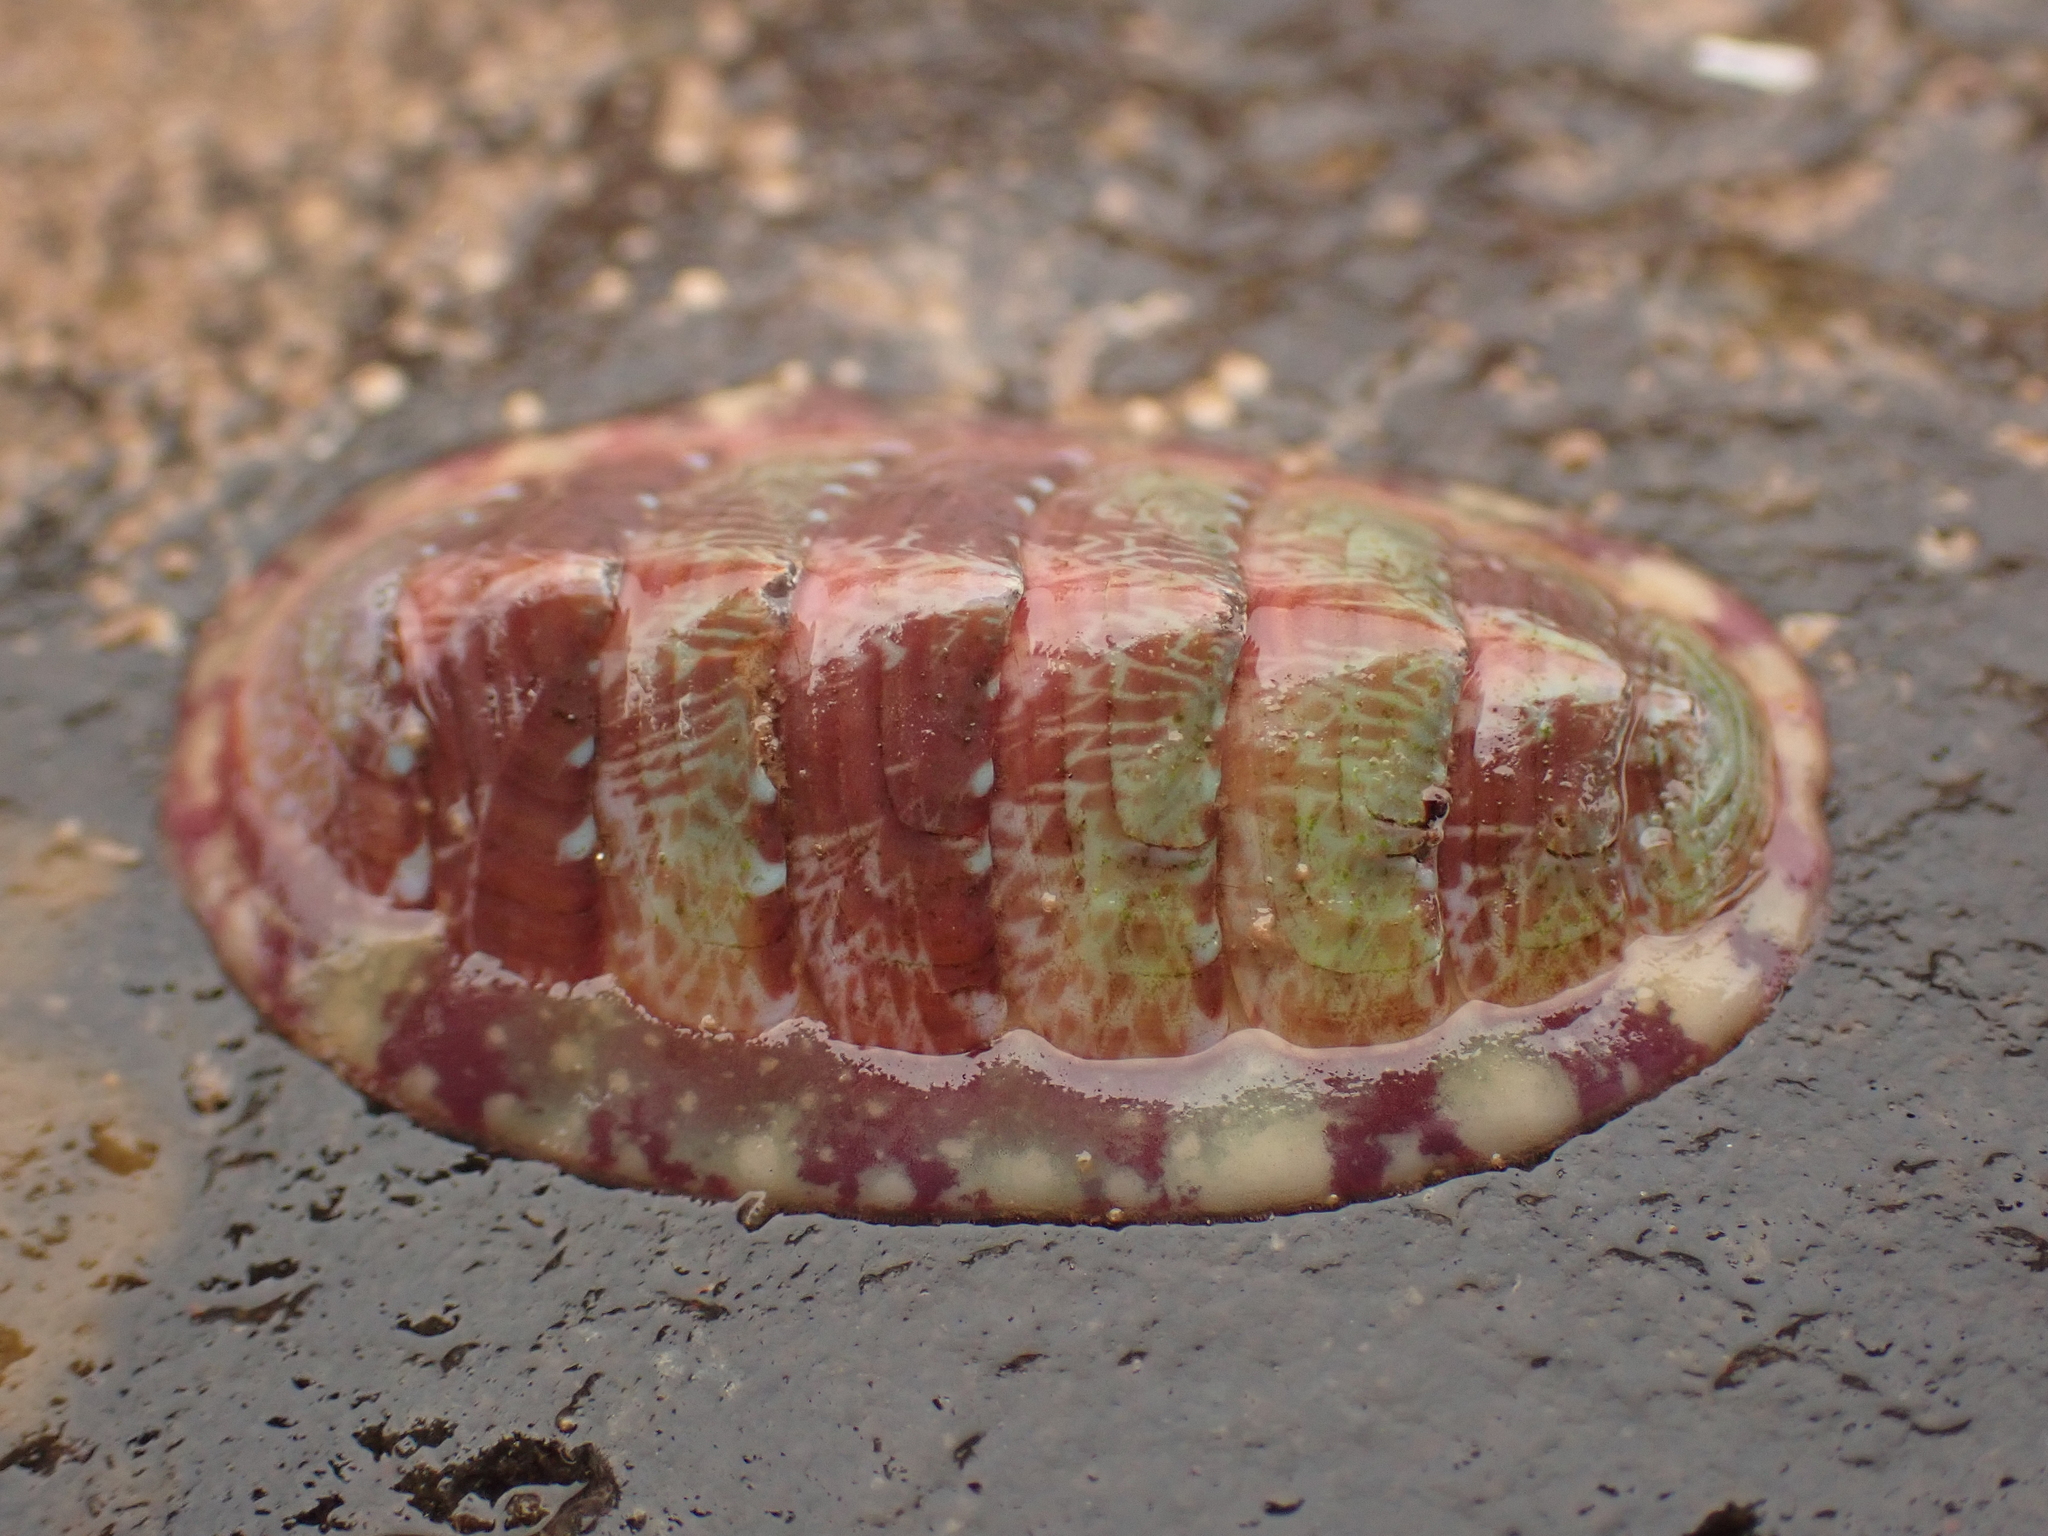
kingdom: Animalia
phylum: Mollusca
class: Polyplacophora
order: Chitonida
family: Tonicellidae
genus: Tonicella
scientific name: Tonicella marmorea
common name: Lined red chiton
